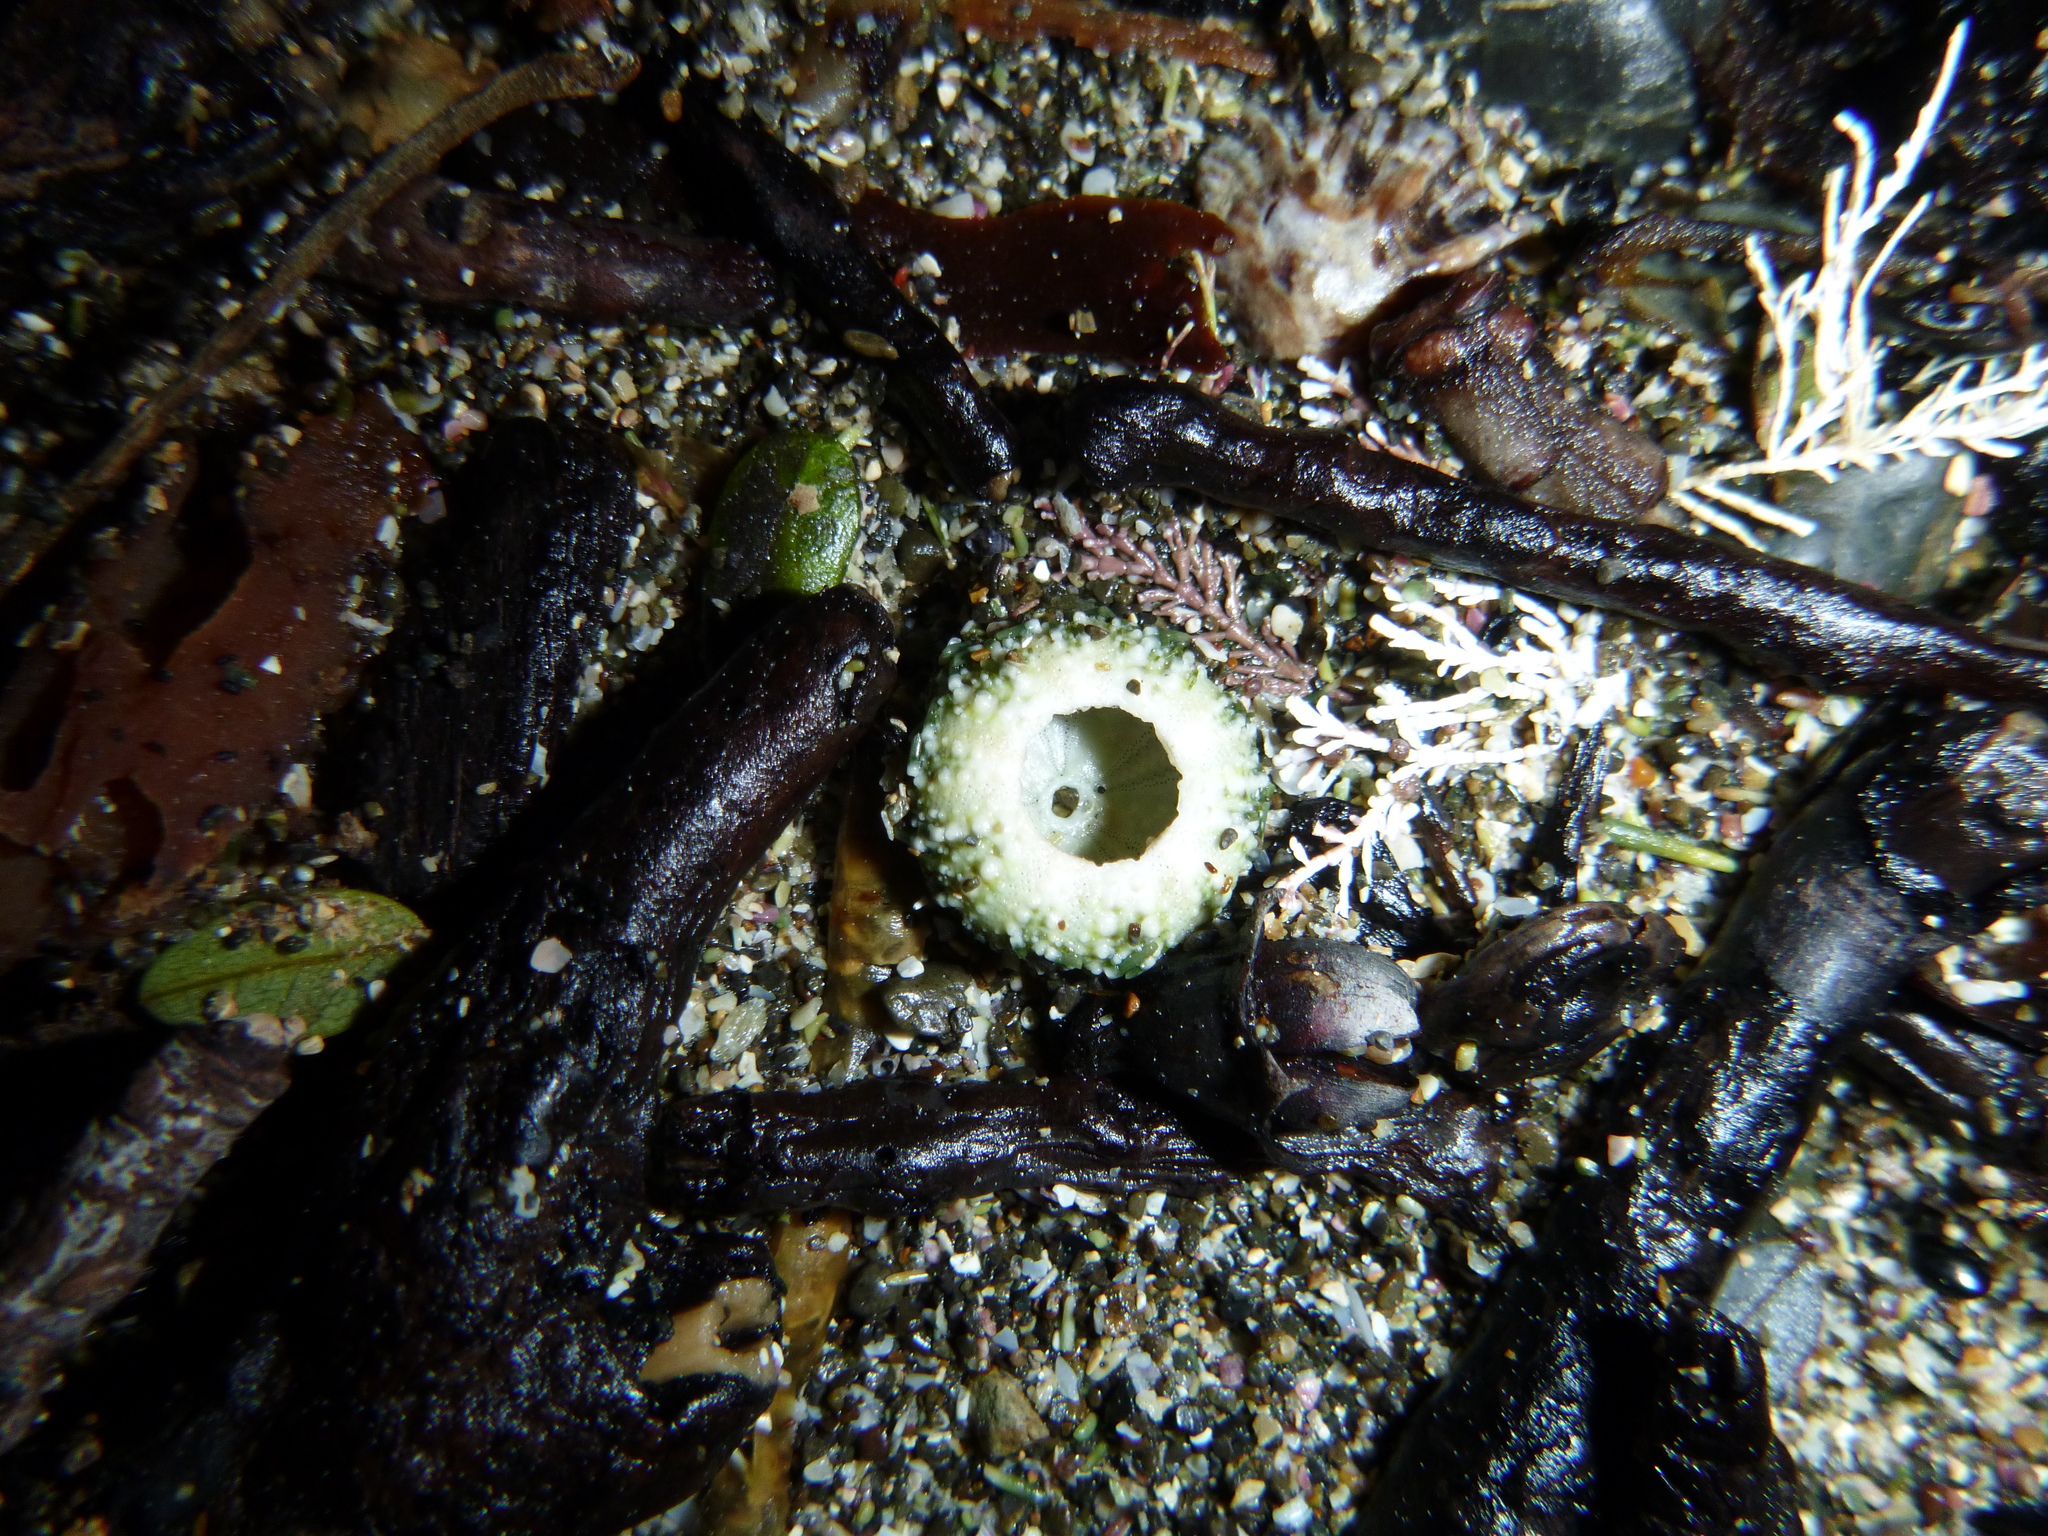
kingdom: Animalia
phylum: Echinodermata
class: Echinoidea
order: Camarodonta
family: Echinometridae
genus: Evechinus
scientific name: Evechinus chloroticus
